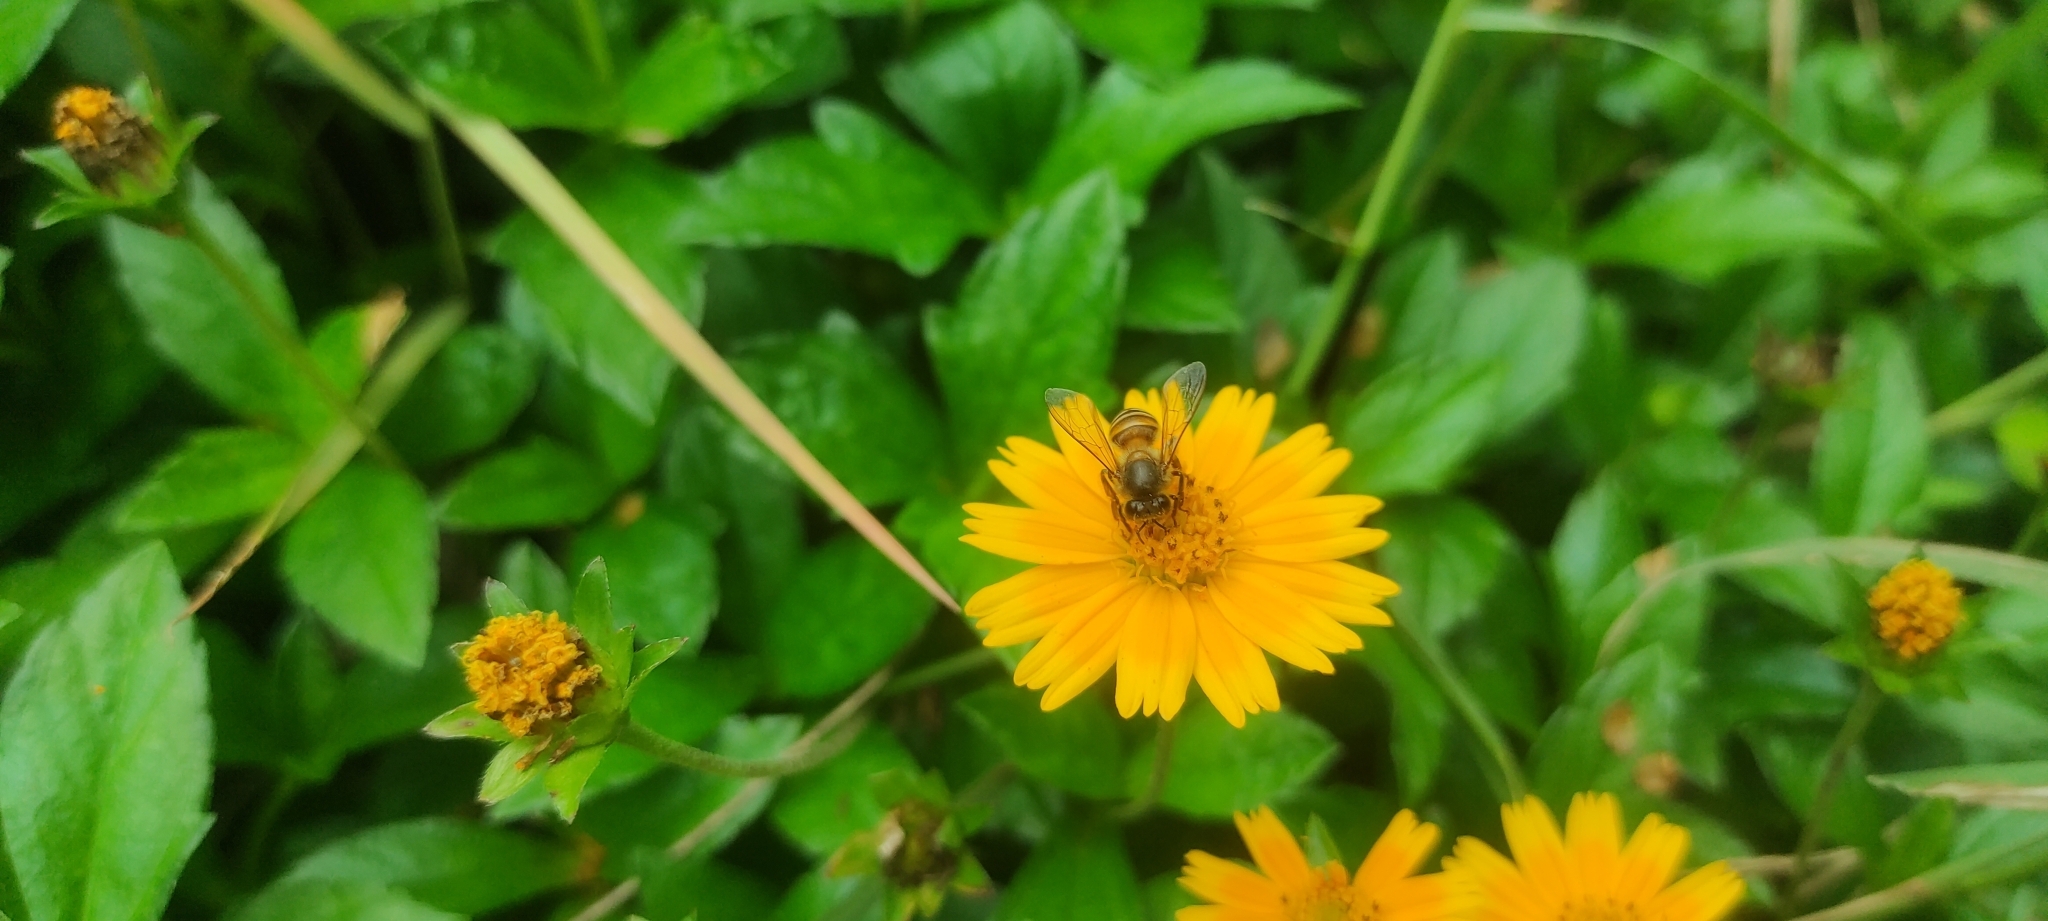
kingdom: Animalia
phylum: Arthropoda
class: Insecta
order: Hymenoptera
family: Apidae
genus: Apis
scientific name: Apis cerana
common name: Honey bee
